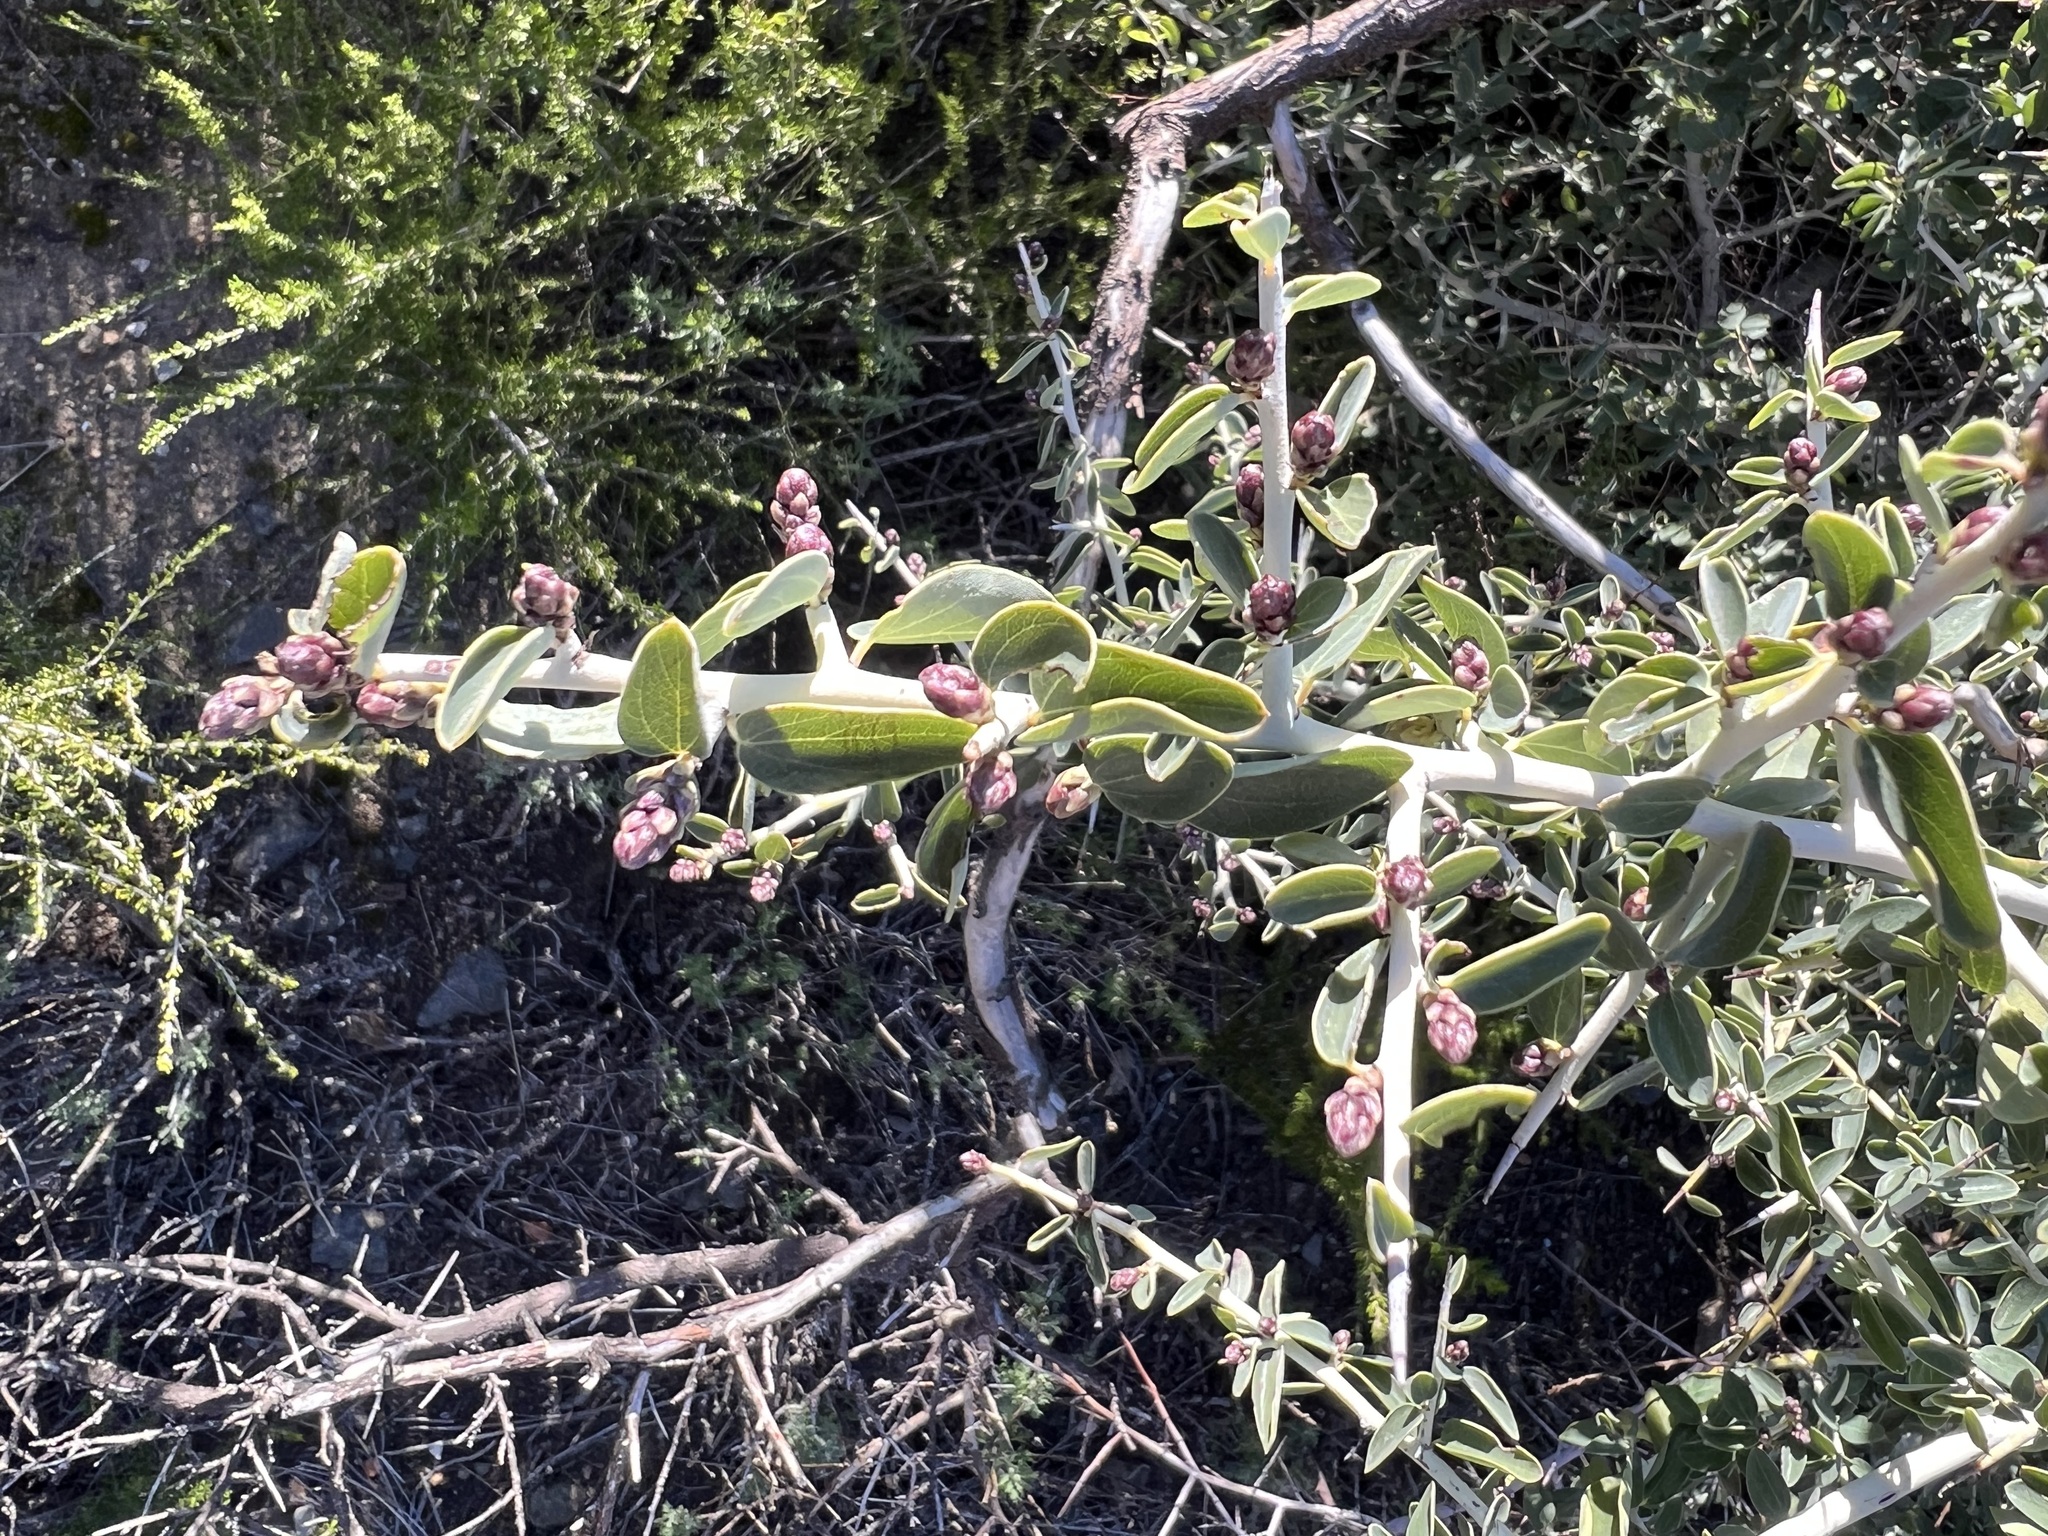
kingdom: Plantae
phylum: Tracheophyta
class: Magnoliopsida
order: Rosales
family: Rhamnaceae
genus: Ceanothus
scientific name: Ceanothus leucodermis
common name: Chaparral whitethorn
